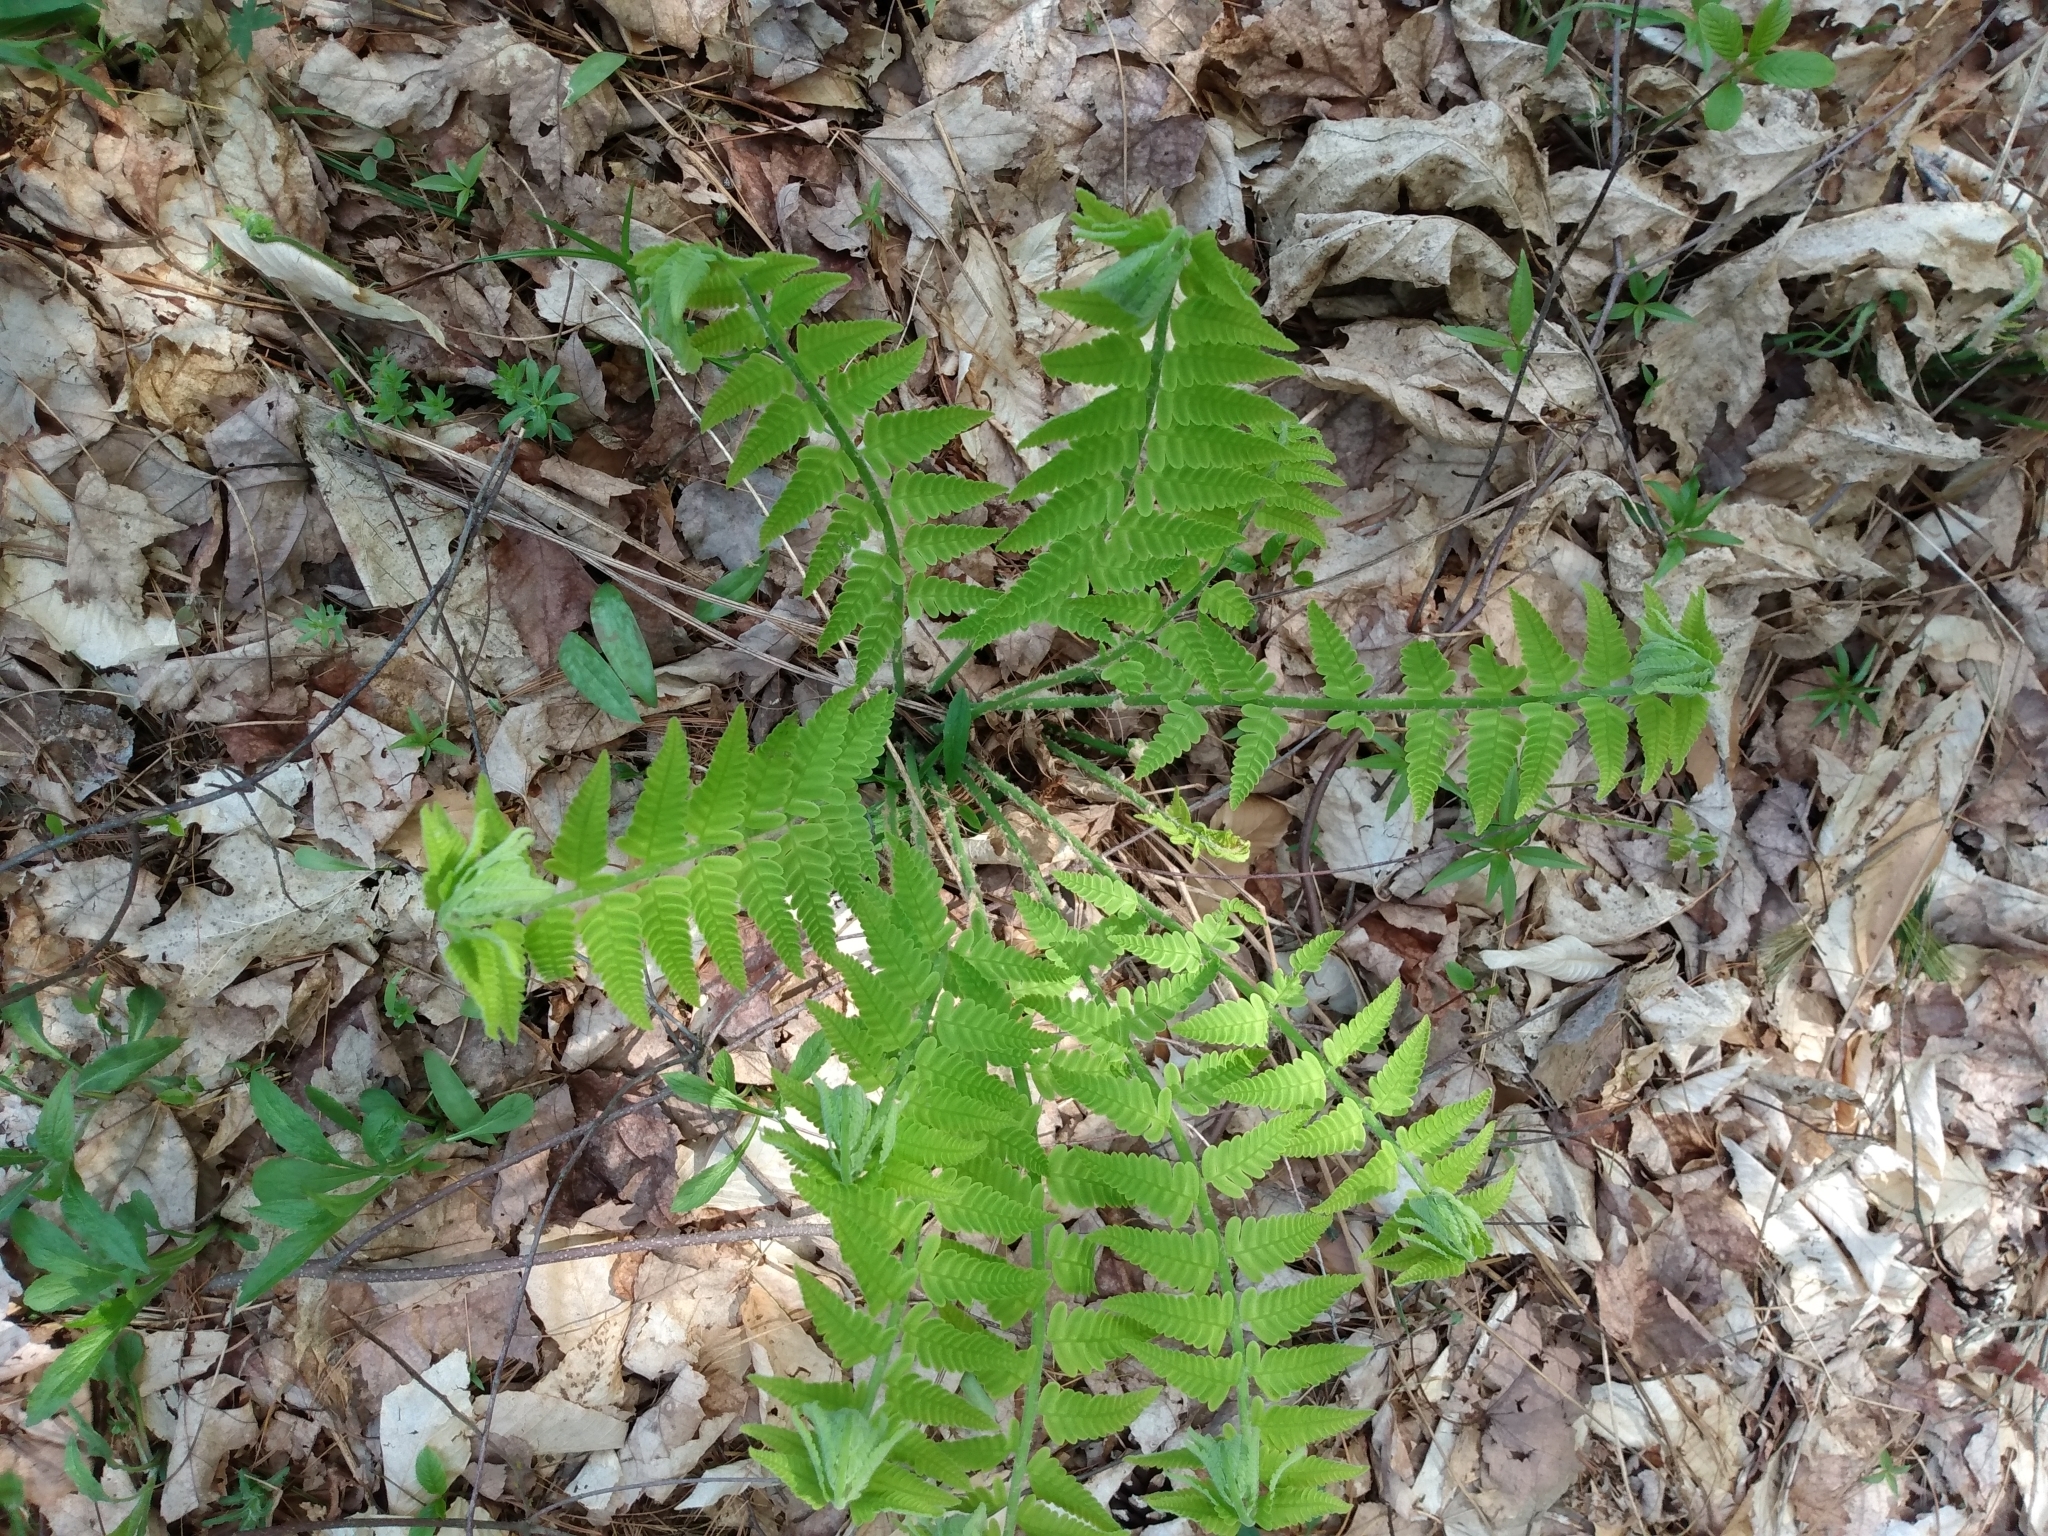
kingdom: Plantae
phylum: Tracheophyta
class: Polypodiopsida
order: Osmundales
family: Osmundaceae
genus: Claytosmunda
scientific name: Claytosmunda claytoniana
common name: Clayton's fern
